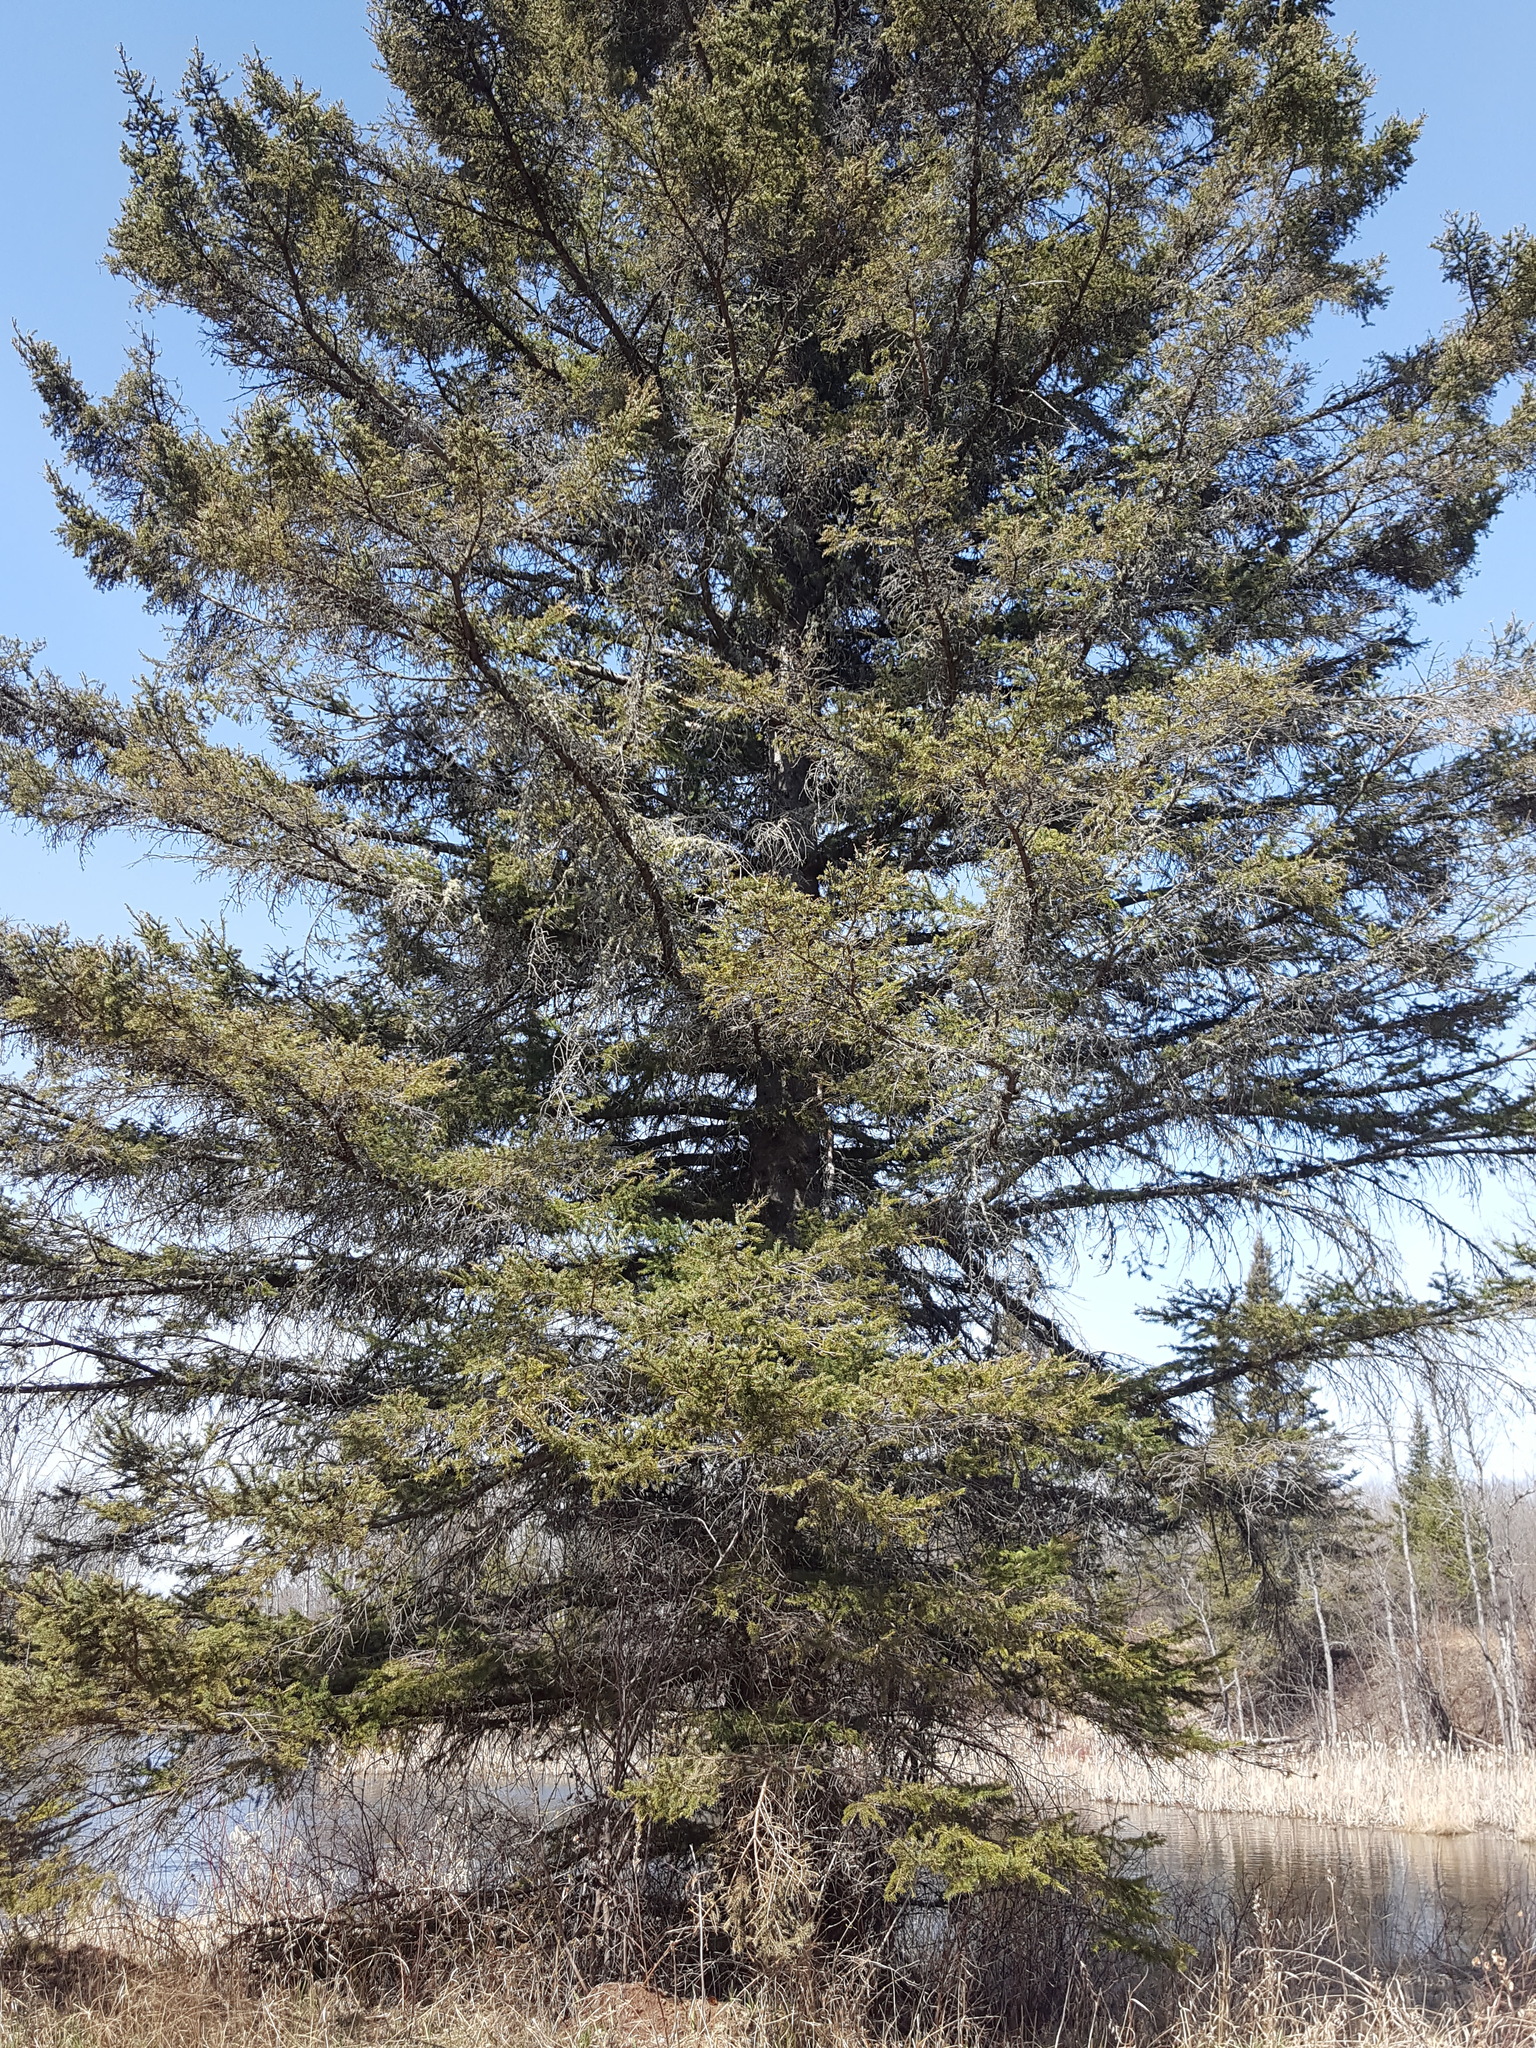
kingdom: Plantae
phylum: Tracheophyta
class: Pinopsida
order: Pinales
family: Pinaceae
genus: Picea
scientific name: Picea glauca
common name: White spruce
